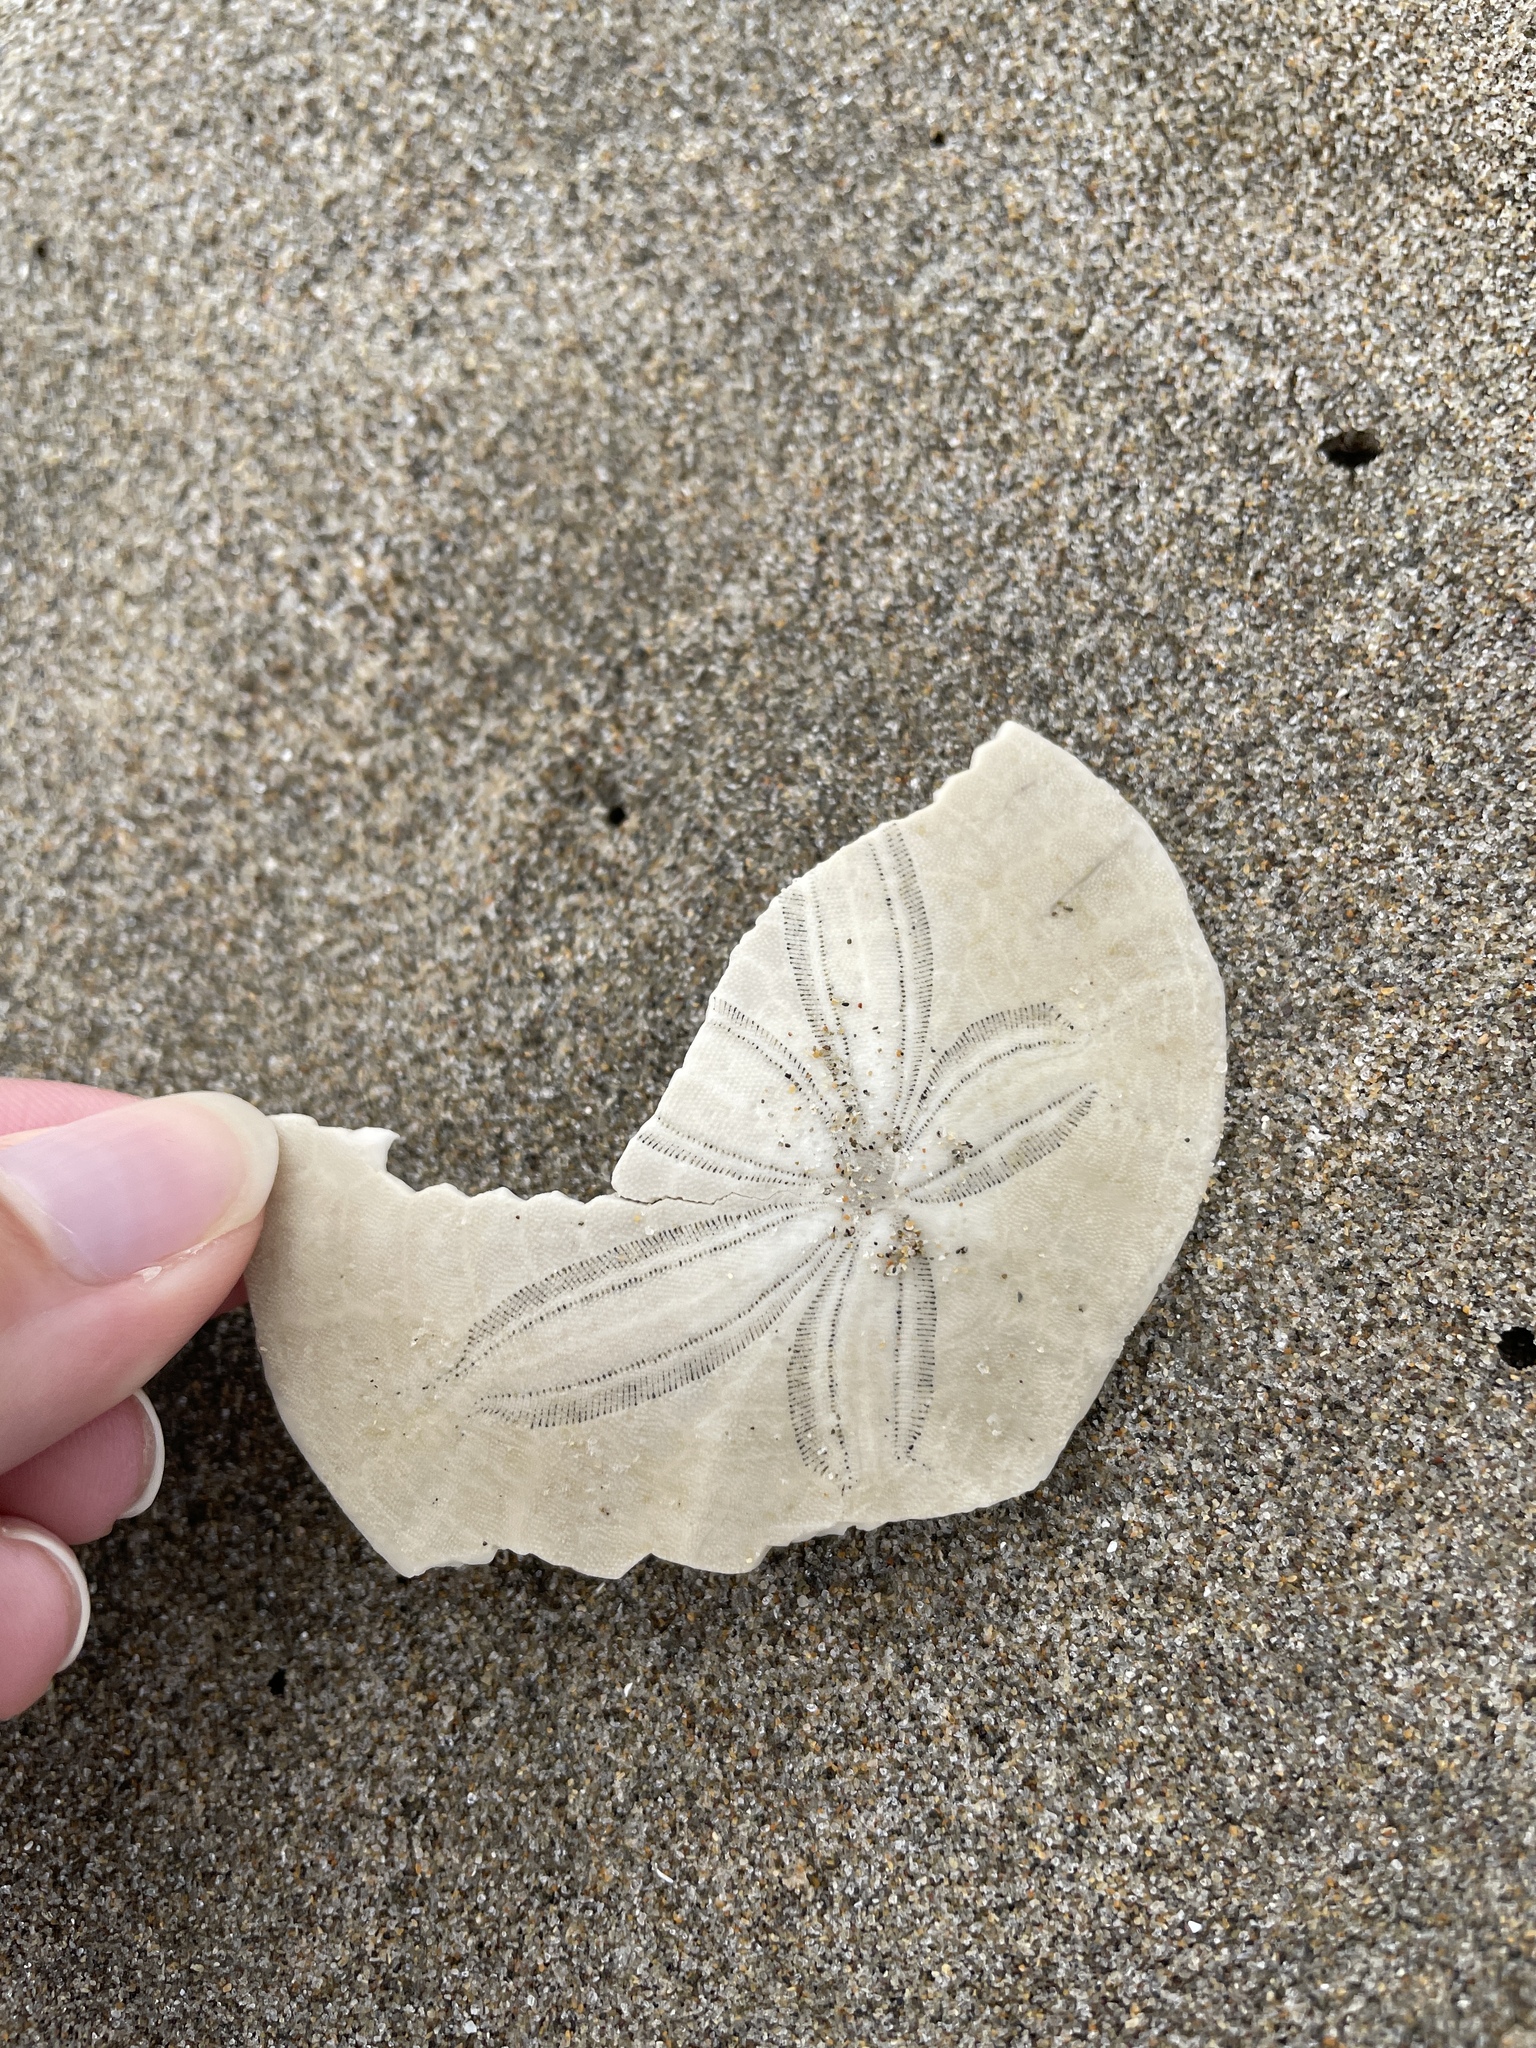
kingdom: Animalia
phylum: Echinodermata
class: Echinoidea
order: Echinolampadacea
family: Dendrasteridae
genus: Dendraster
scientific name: Dendraster excentricus
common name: Eccentric sand dollar sea urchin
